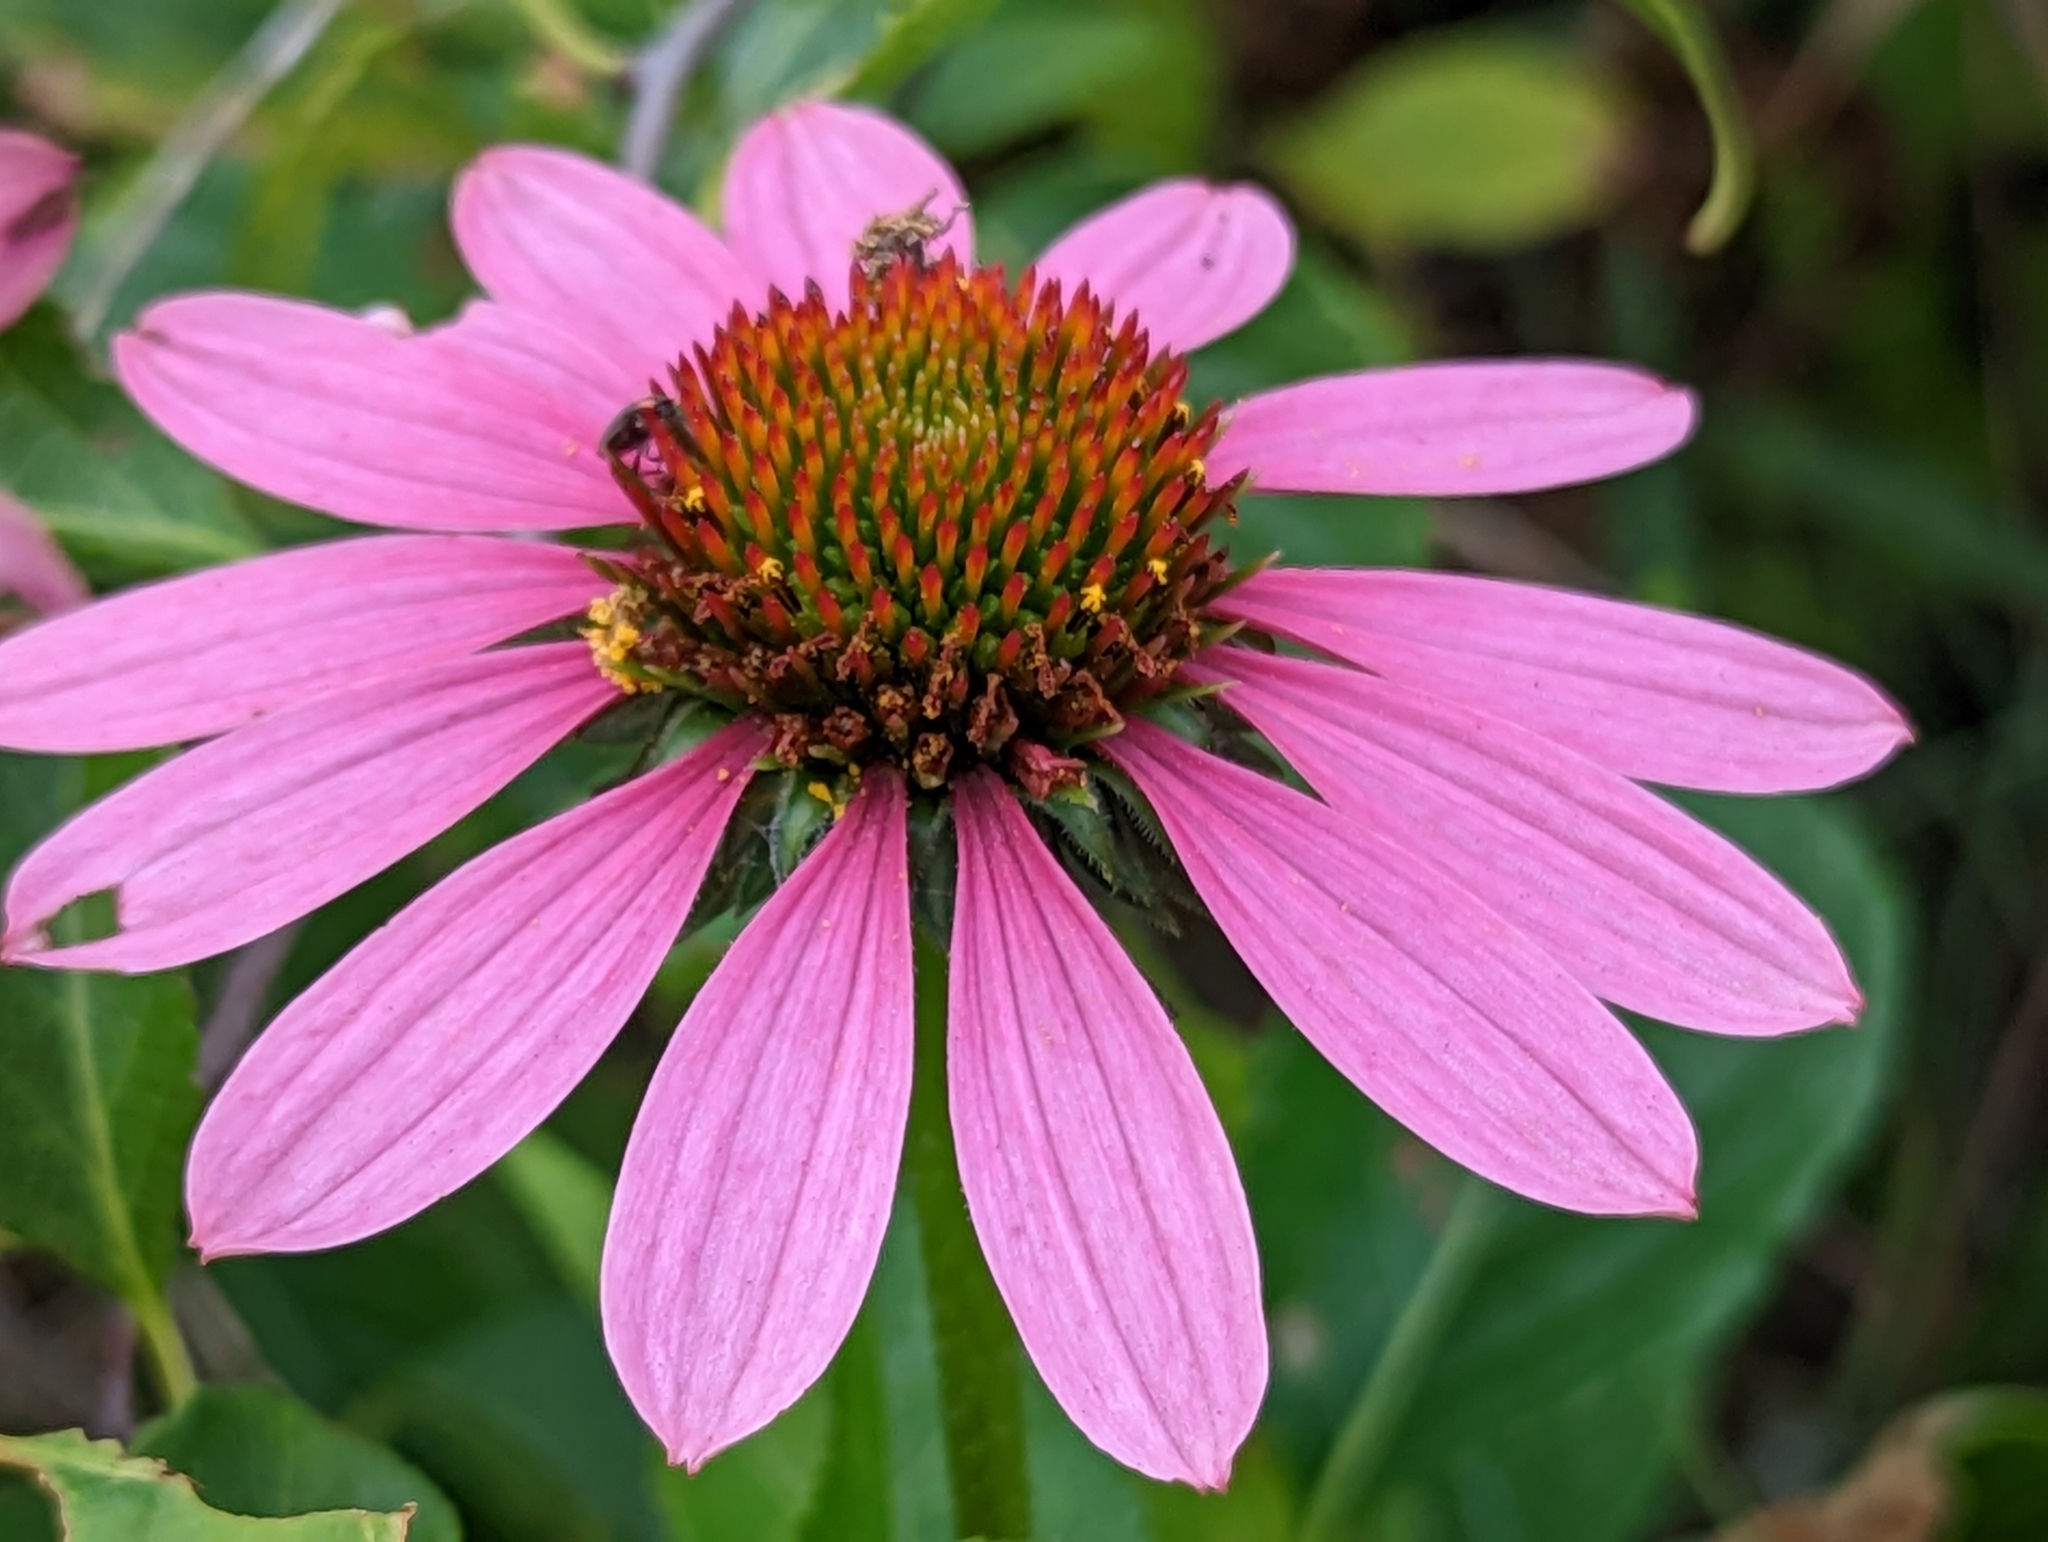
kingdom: Plantae
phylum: Tracheophyta
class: Magnoliopsida
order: Asterales
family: Asteraceae
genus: Echinacea
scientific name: Echinacea purpurea
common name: Broad-leaved purple coneflower
